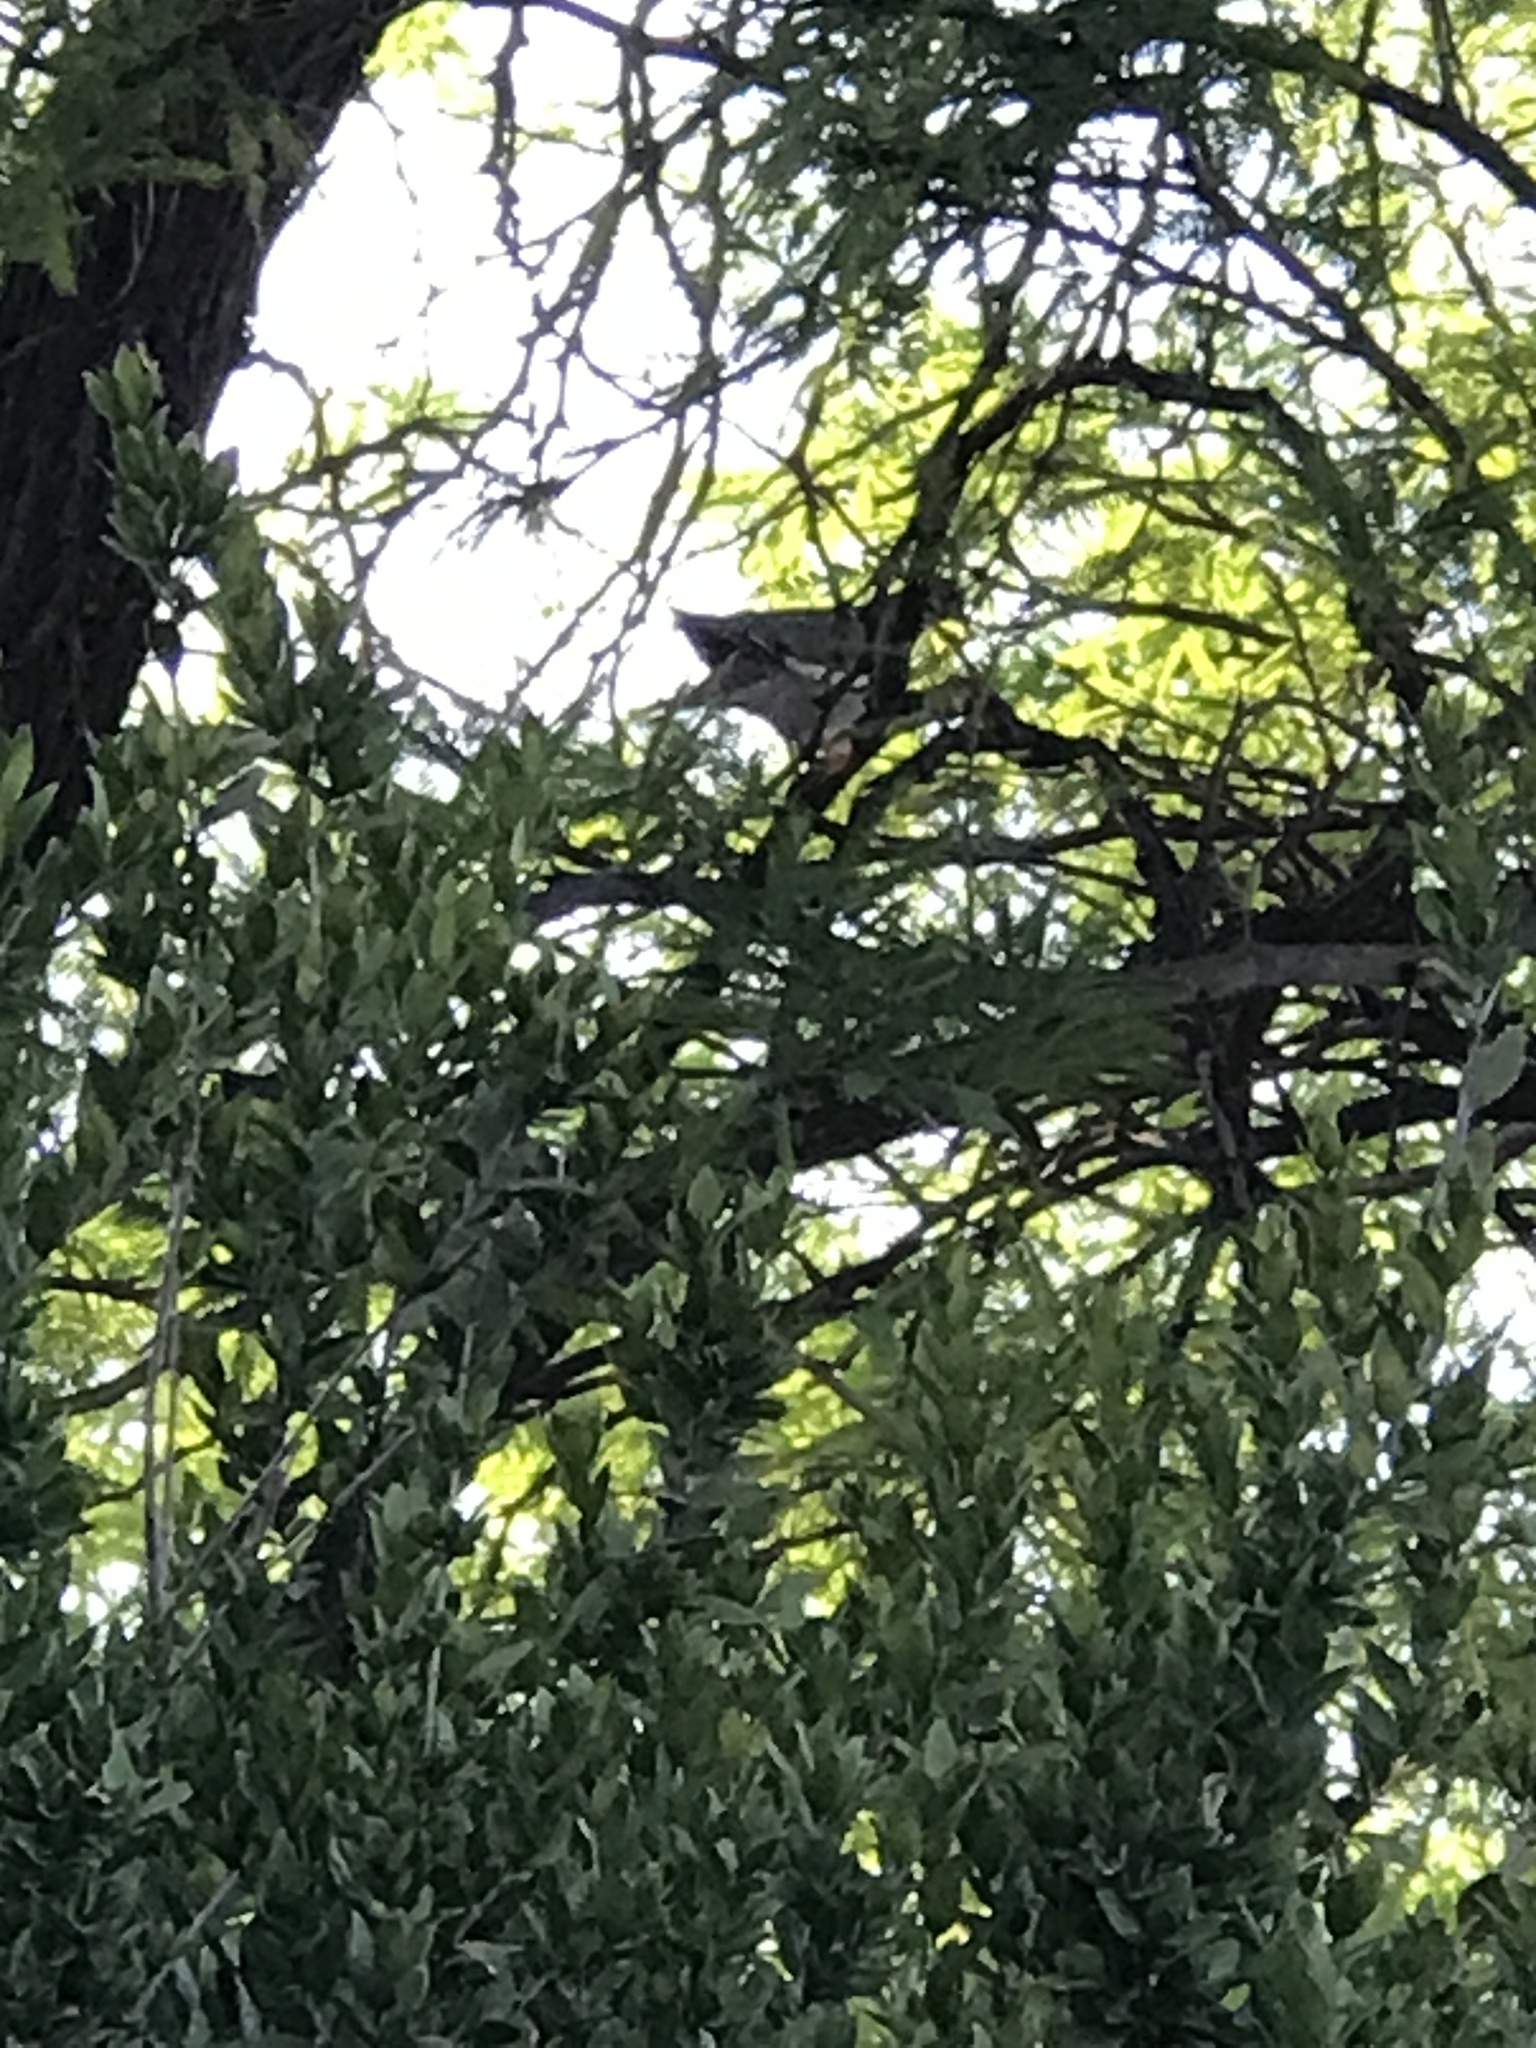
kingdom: Animalia
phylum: Chordata
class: Aves
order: Columbiformes
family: Columbidae
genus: Zenaida
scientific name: Zenaida asiatica
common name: White-winged dove
